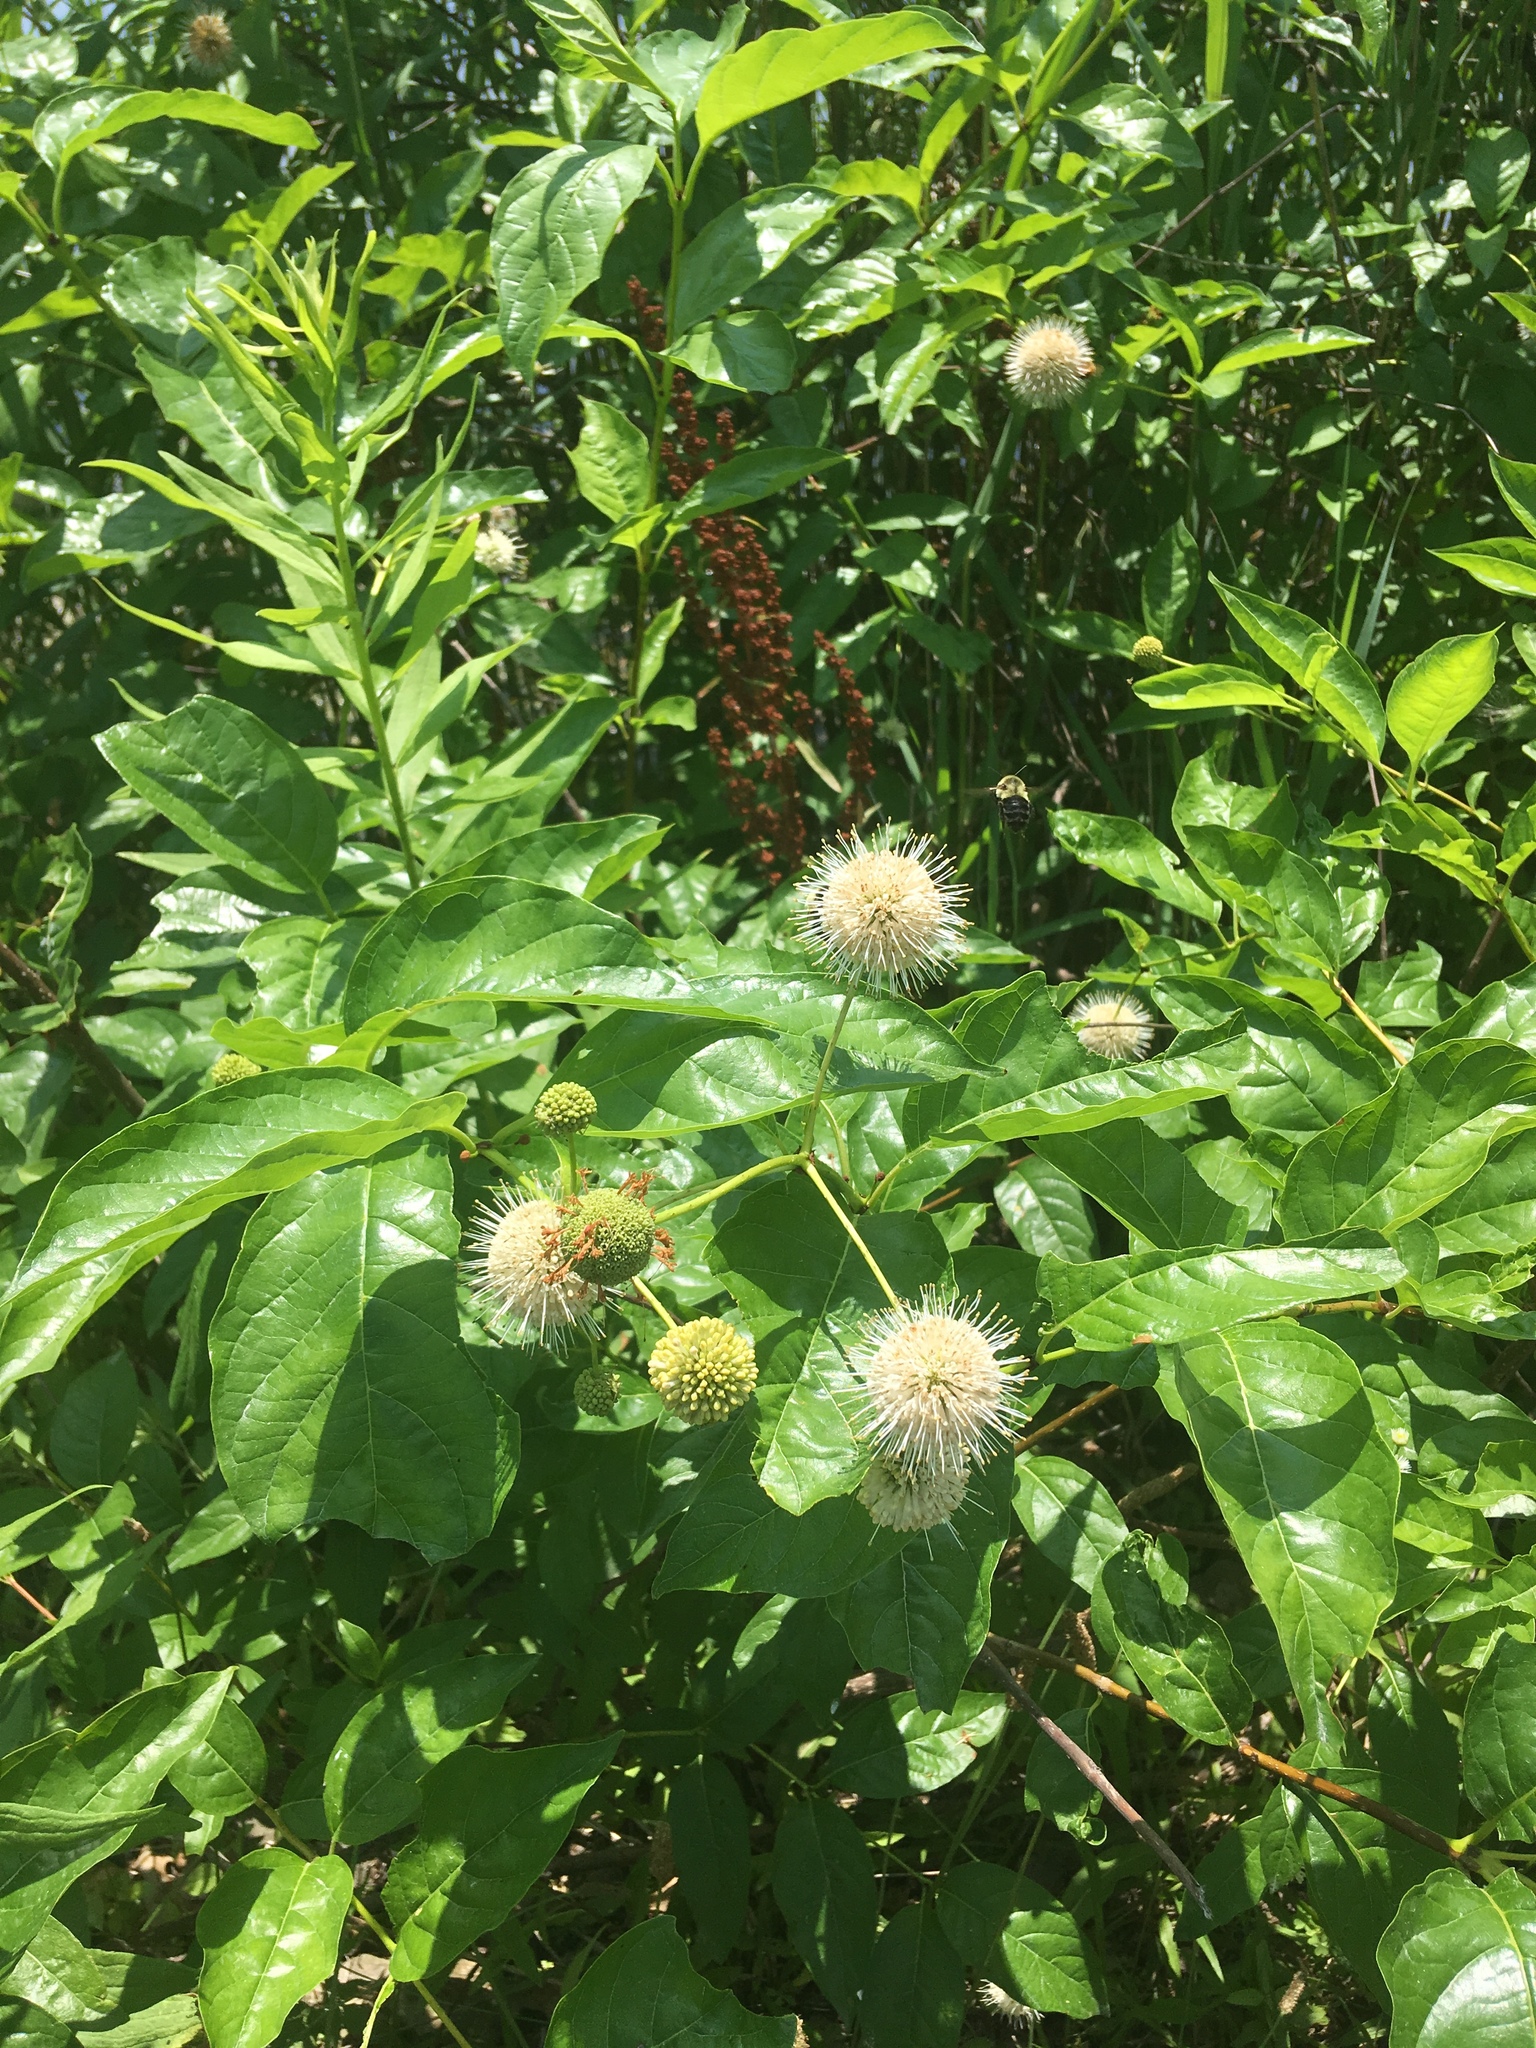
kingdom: Plantae
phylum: Tracheophyta
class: Magnoliopsida
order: Gentianales
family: Rubiaceae
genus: Cephalanthus
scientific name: Cephalanthus occidentalis
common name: Button-willow
